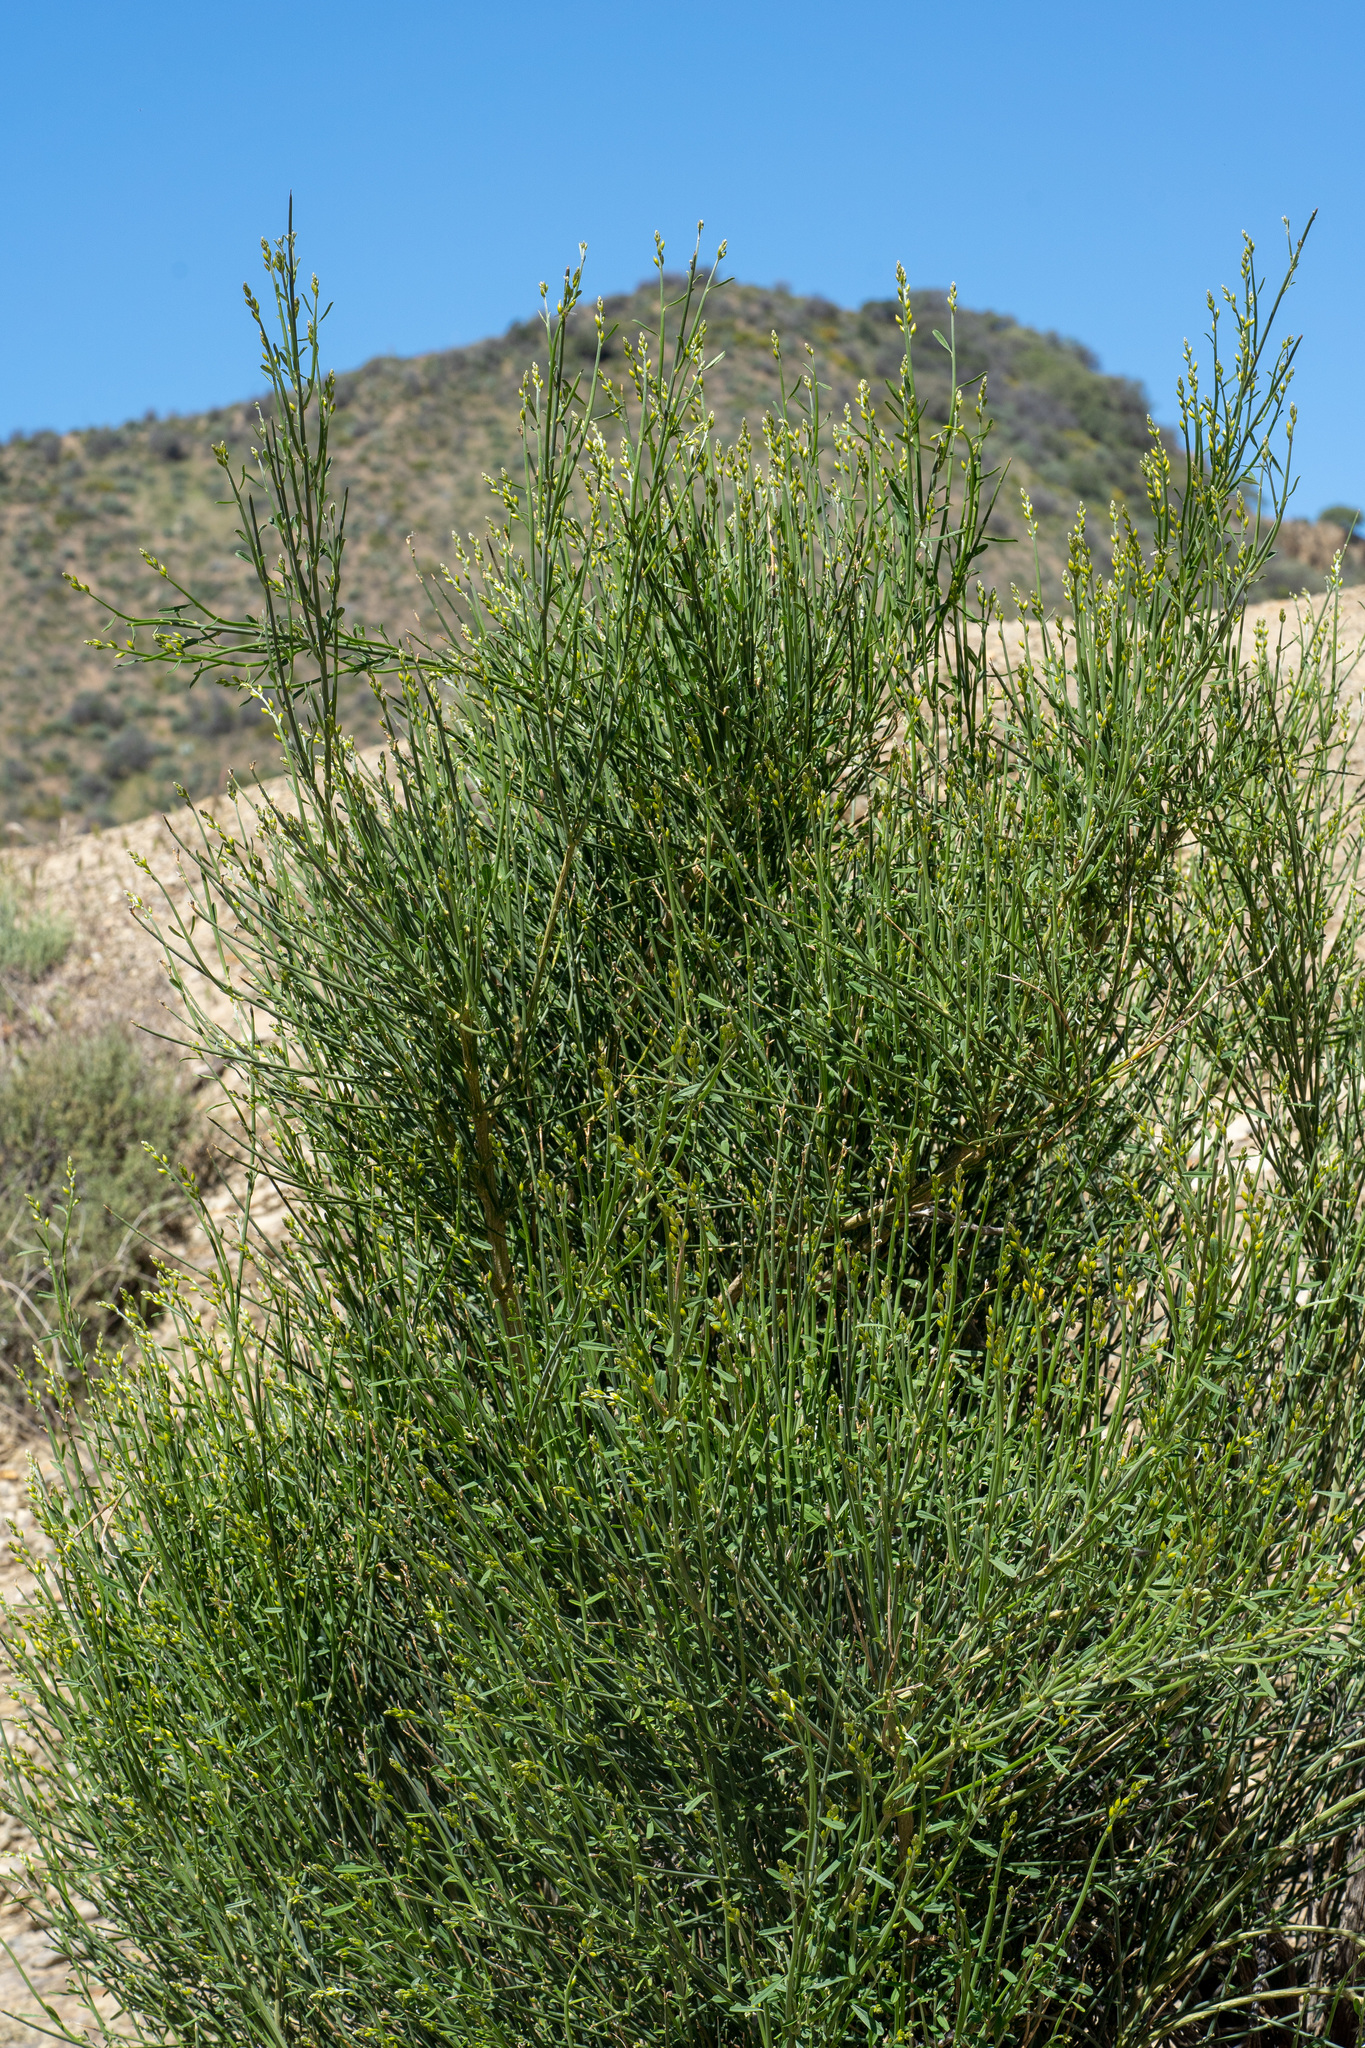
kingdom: Plantae
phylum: Tracheophyta
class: Magnoliopsida
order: Fabales
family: Fabaceae
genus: Spartium
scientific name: Spartium junceum
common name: Spanish broom
